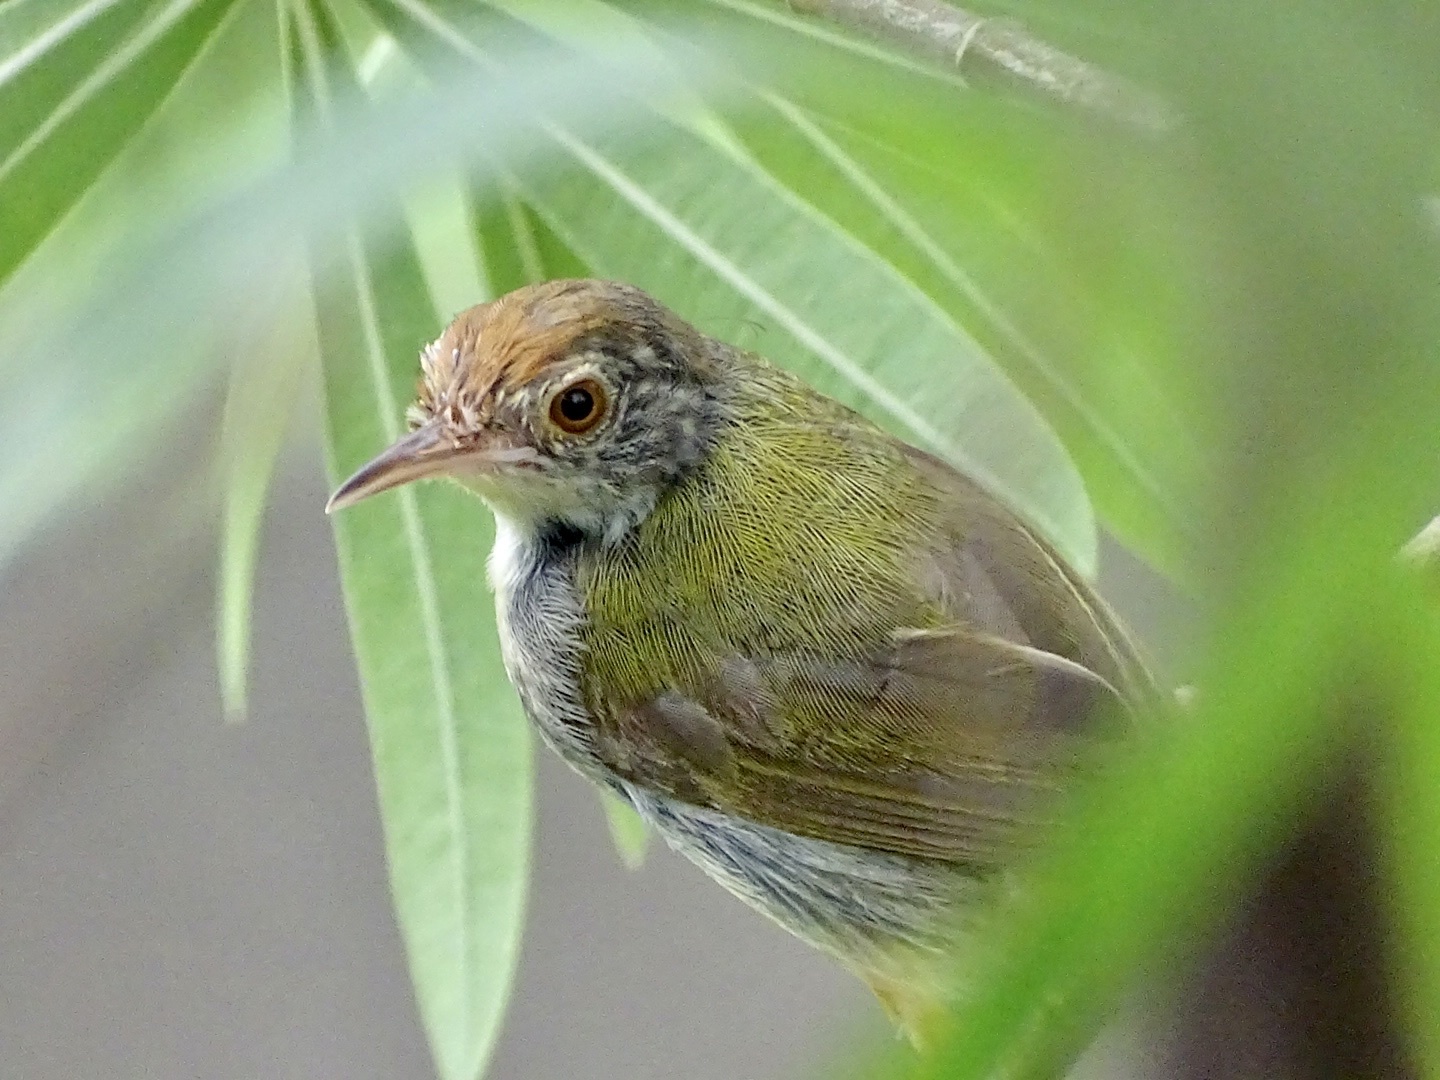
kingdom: Animalia
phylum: Chordata
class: Aves
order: Passeriformes
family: Cisticolidae
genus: Orthotomus
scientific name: Orthotomus sutorius
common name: Common tailorbird
